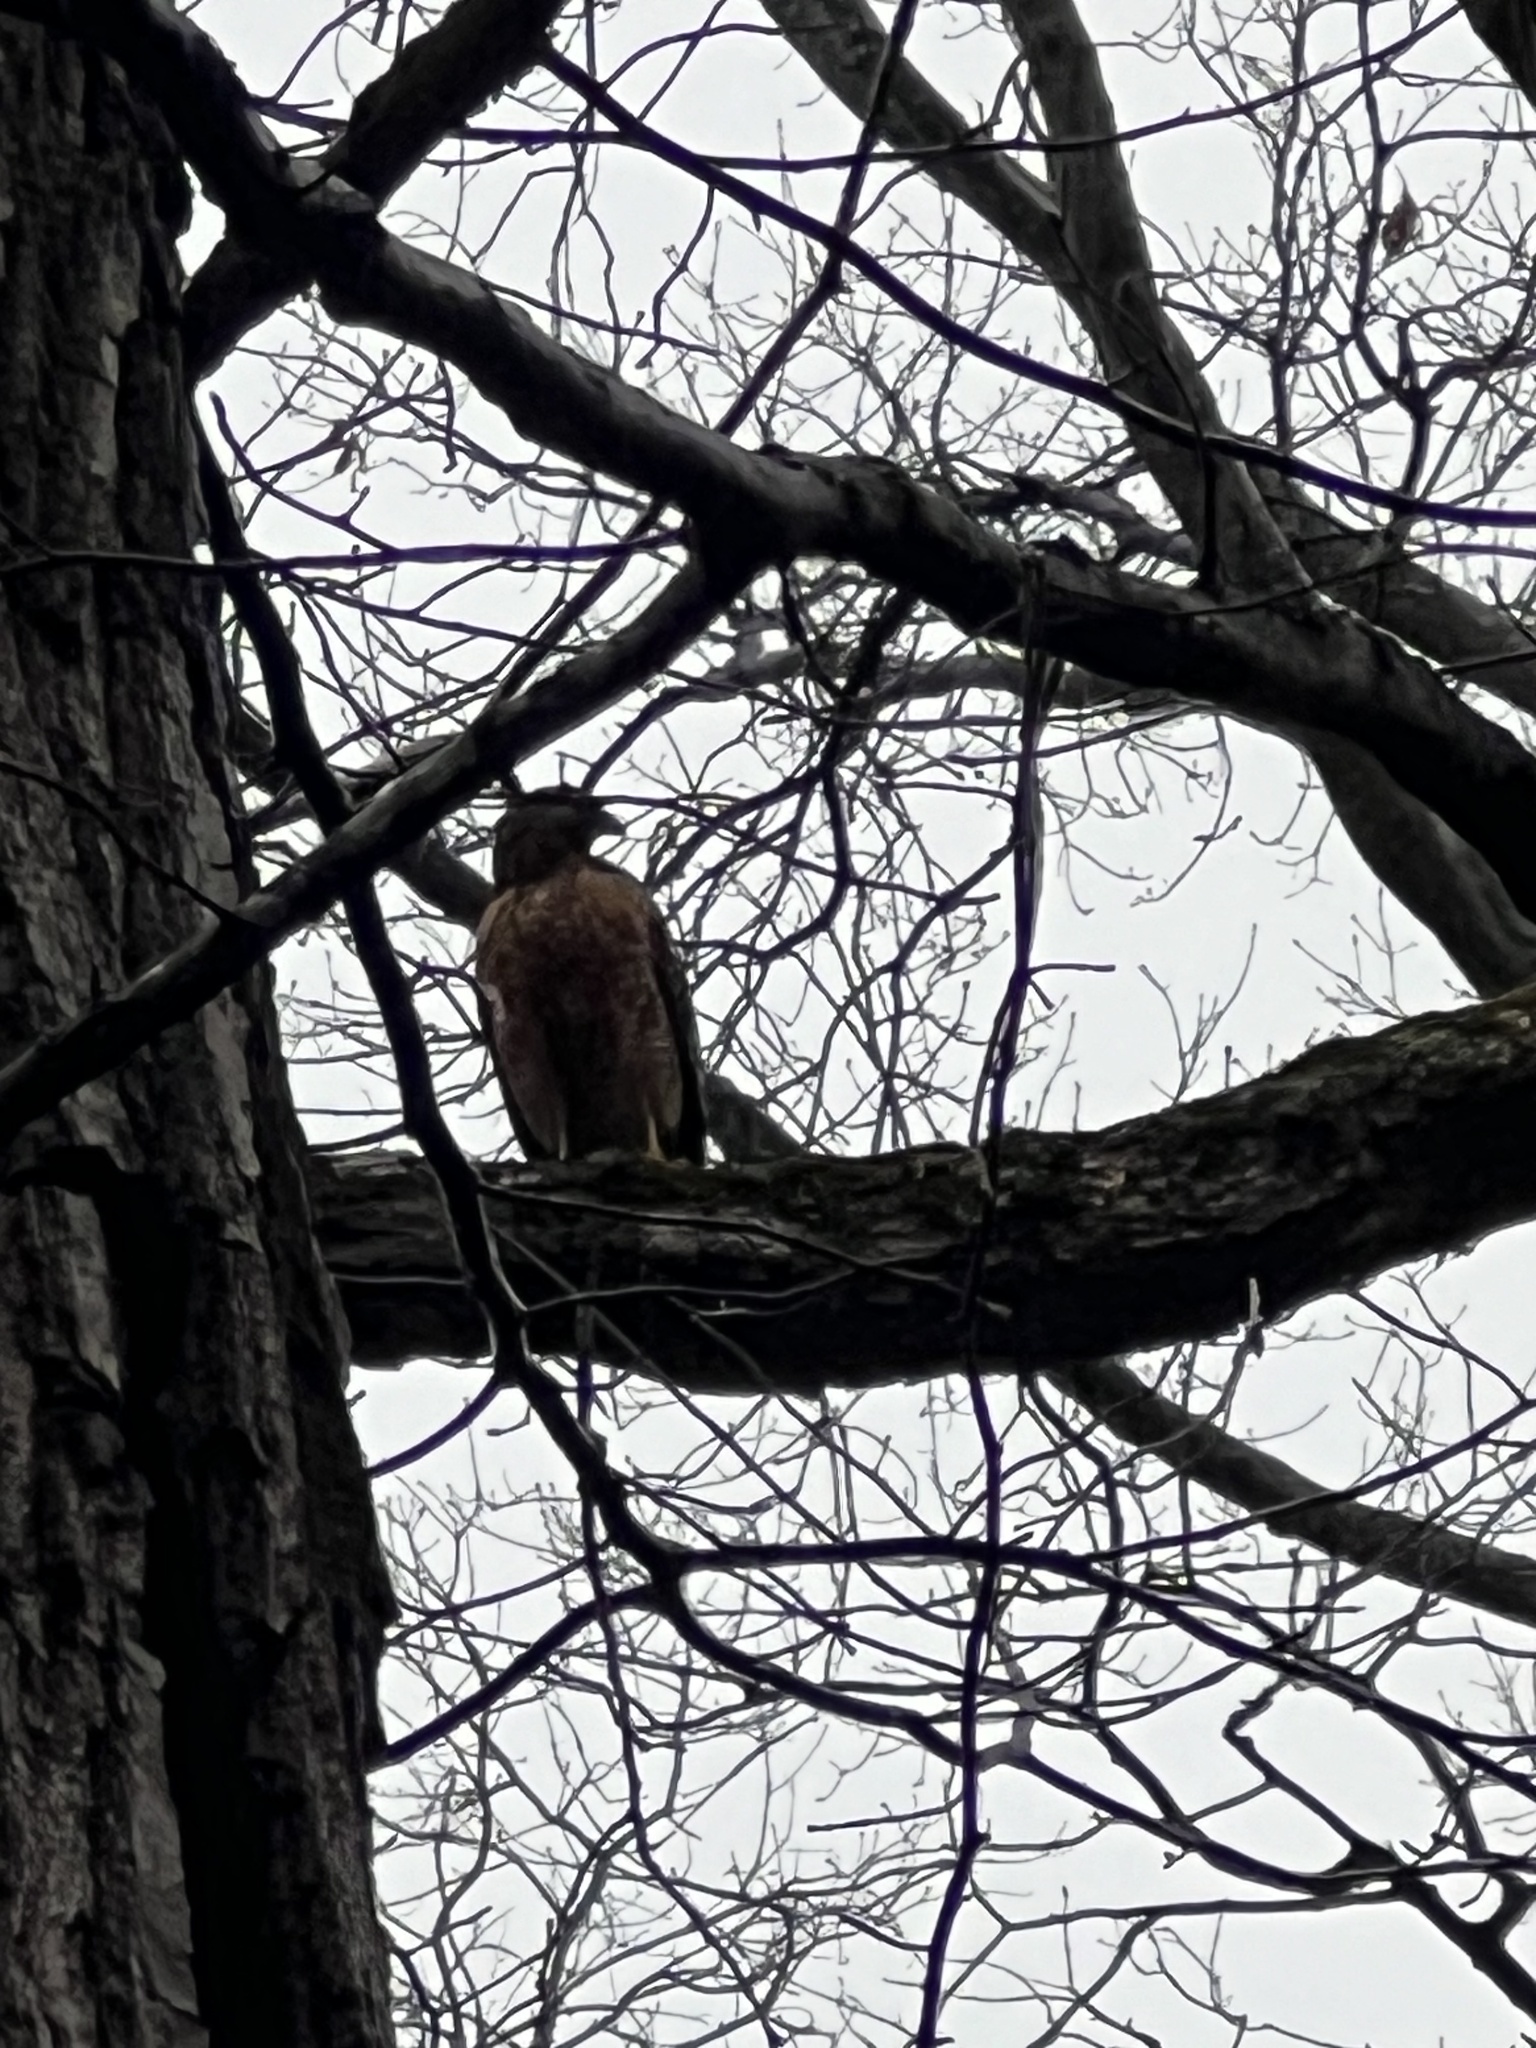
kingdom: Animalia
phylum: Chordata
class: Aves
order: Accipitriformes
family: Accipitridae
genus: Buteo
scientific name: Buteo lineatus
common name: Red-shouldered hawk
